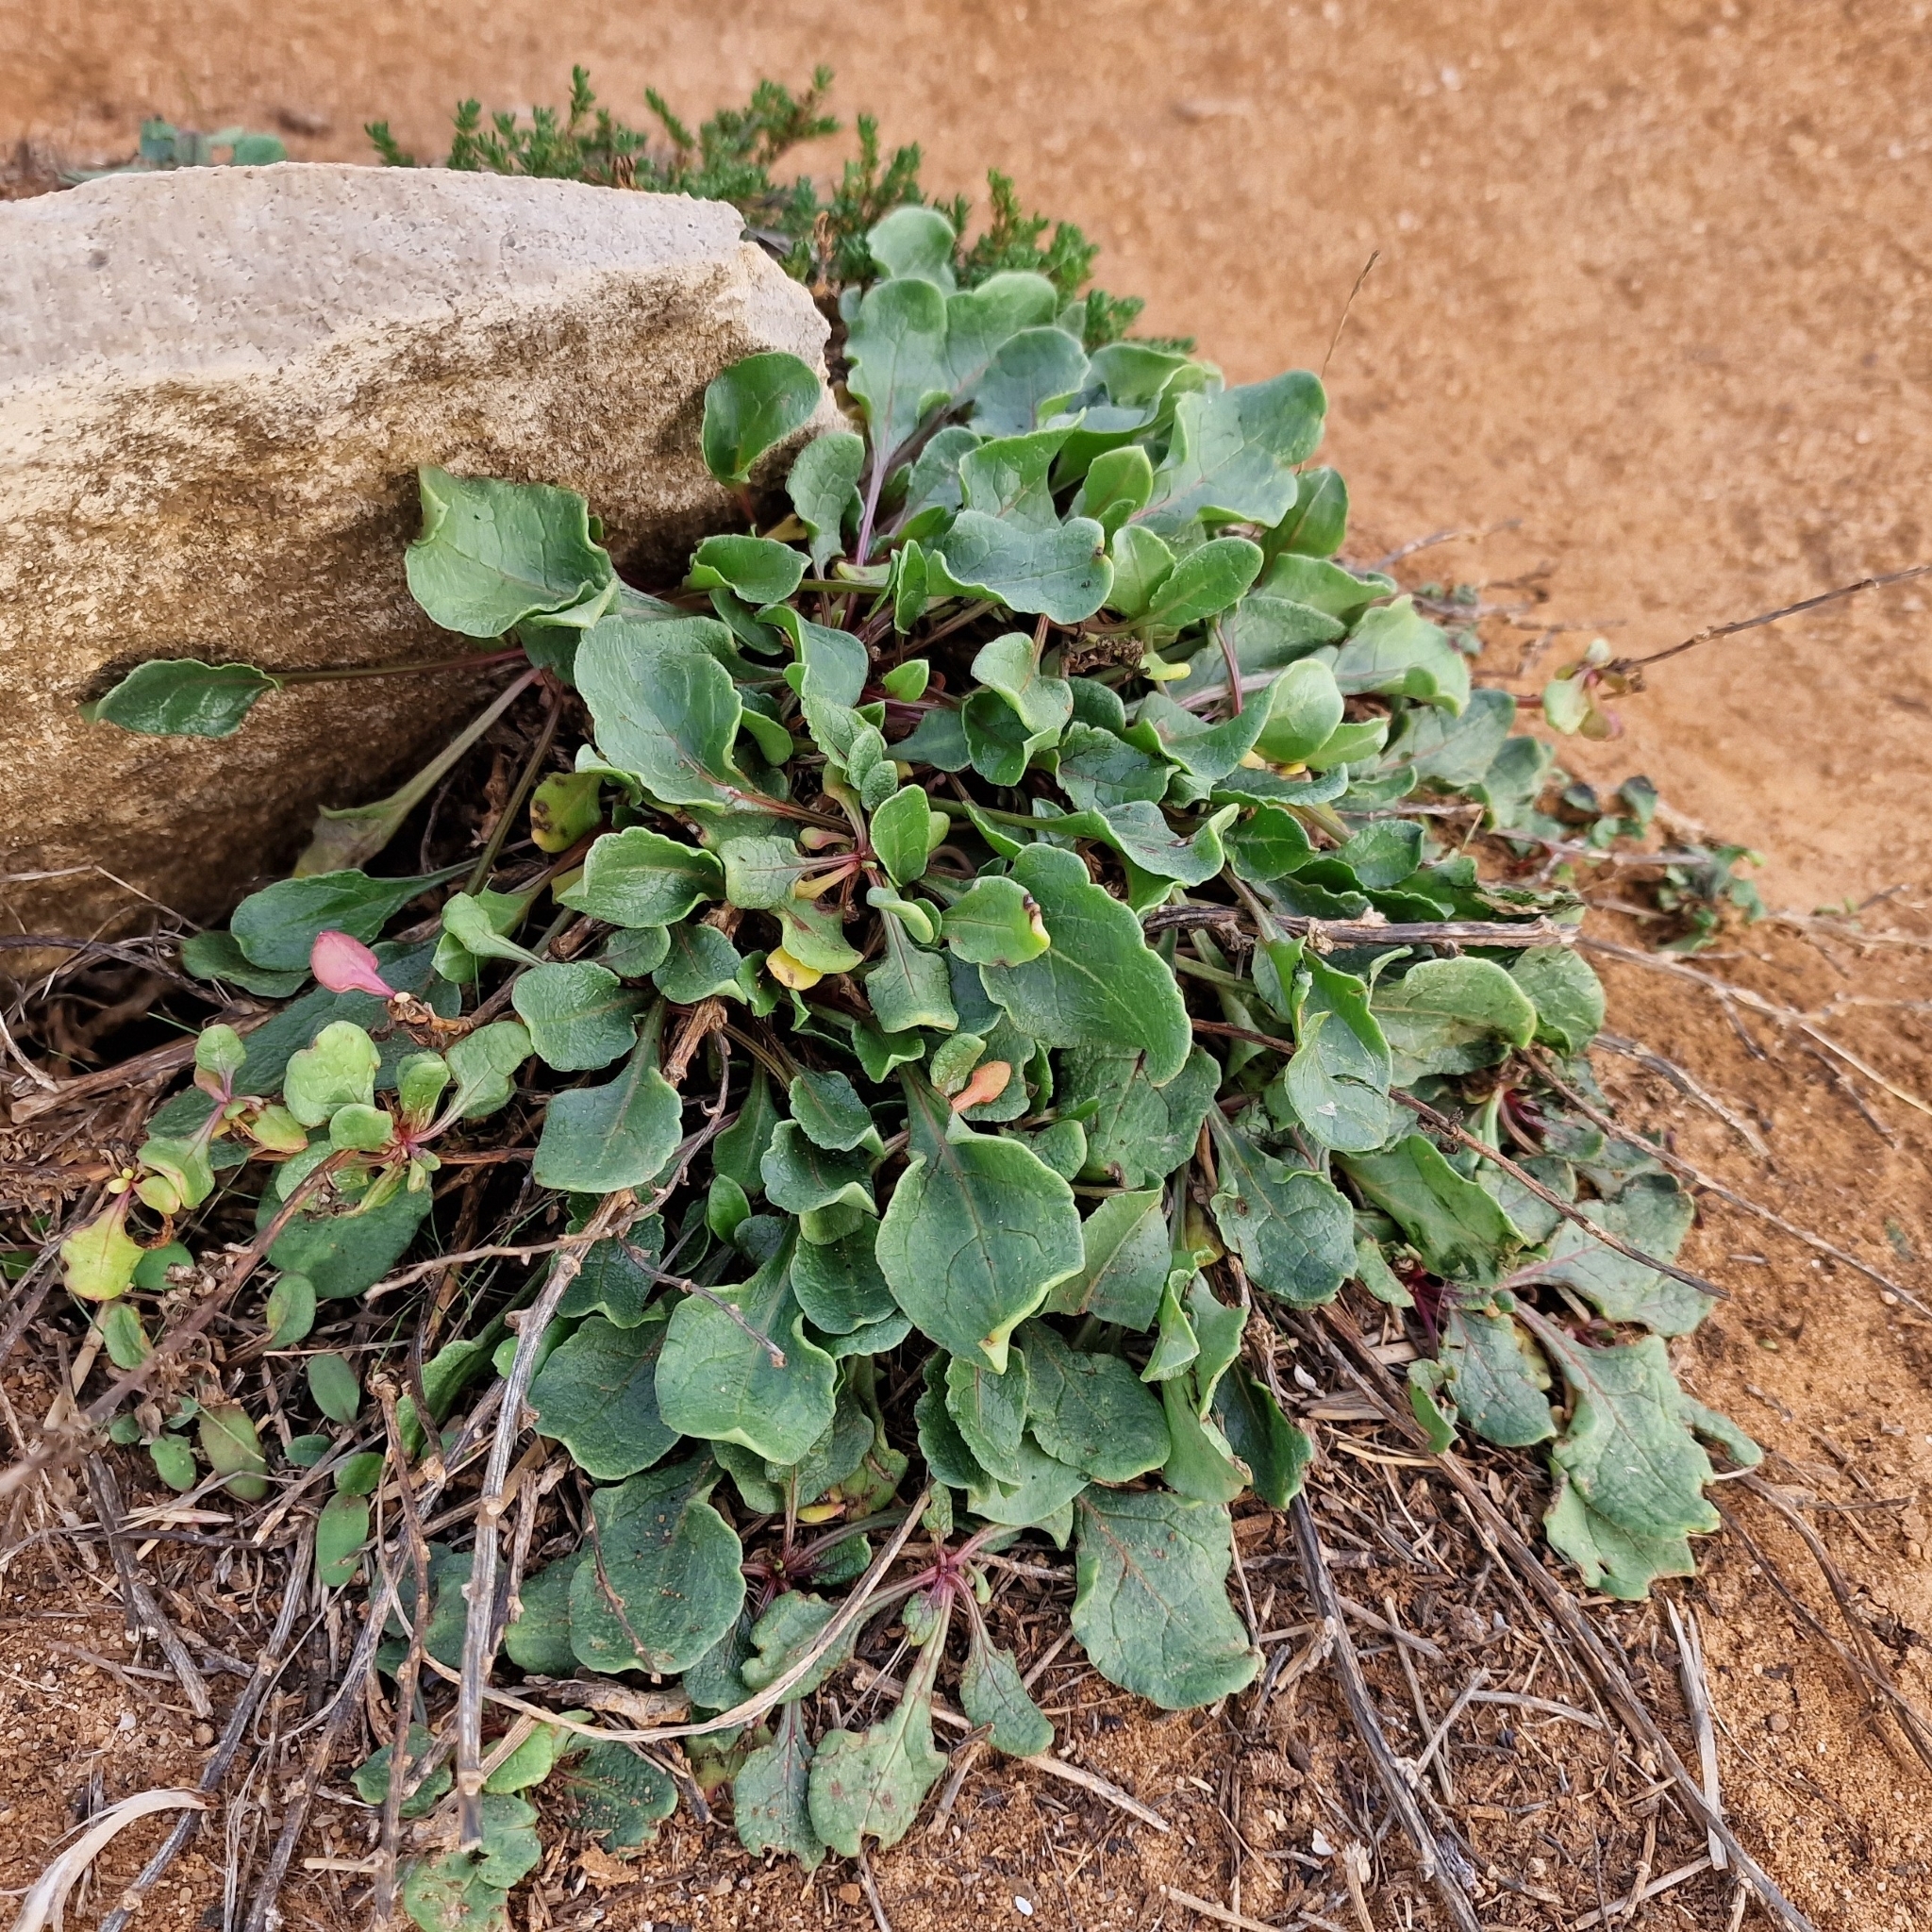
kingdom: Plantae
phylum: Tracheophyta
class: Magnoliopsida
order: Caryophyllales
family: Amaranthaceae
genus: Beta
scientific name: Beta vulgaris
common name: Beet
